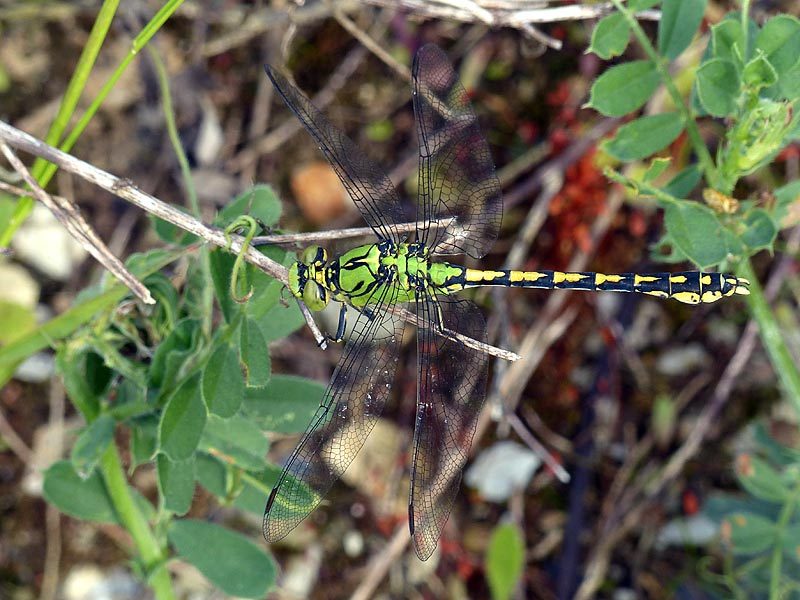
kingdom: Animalia
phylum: Arthropoda
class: Insecta
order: Odonata
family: Gomphidae
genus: Ophiogomphus
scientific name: Ophiogomphus cecilia
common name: Green snaketail
